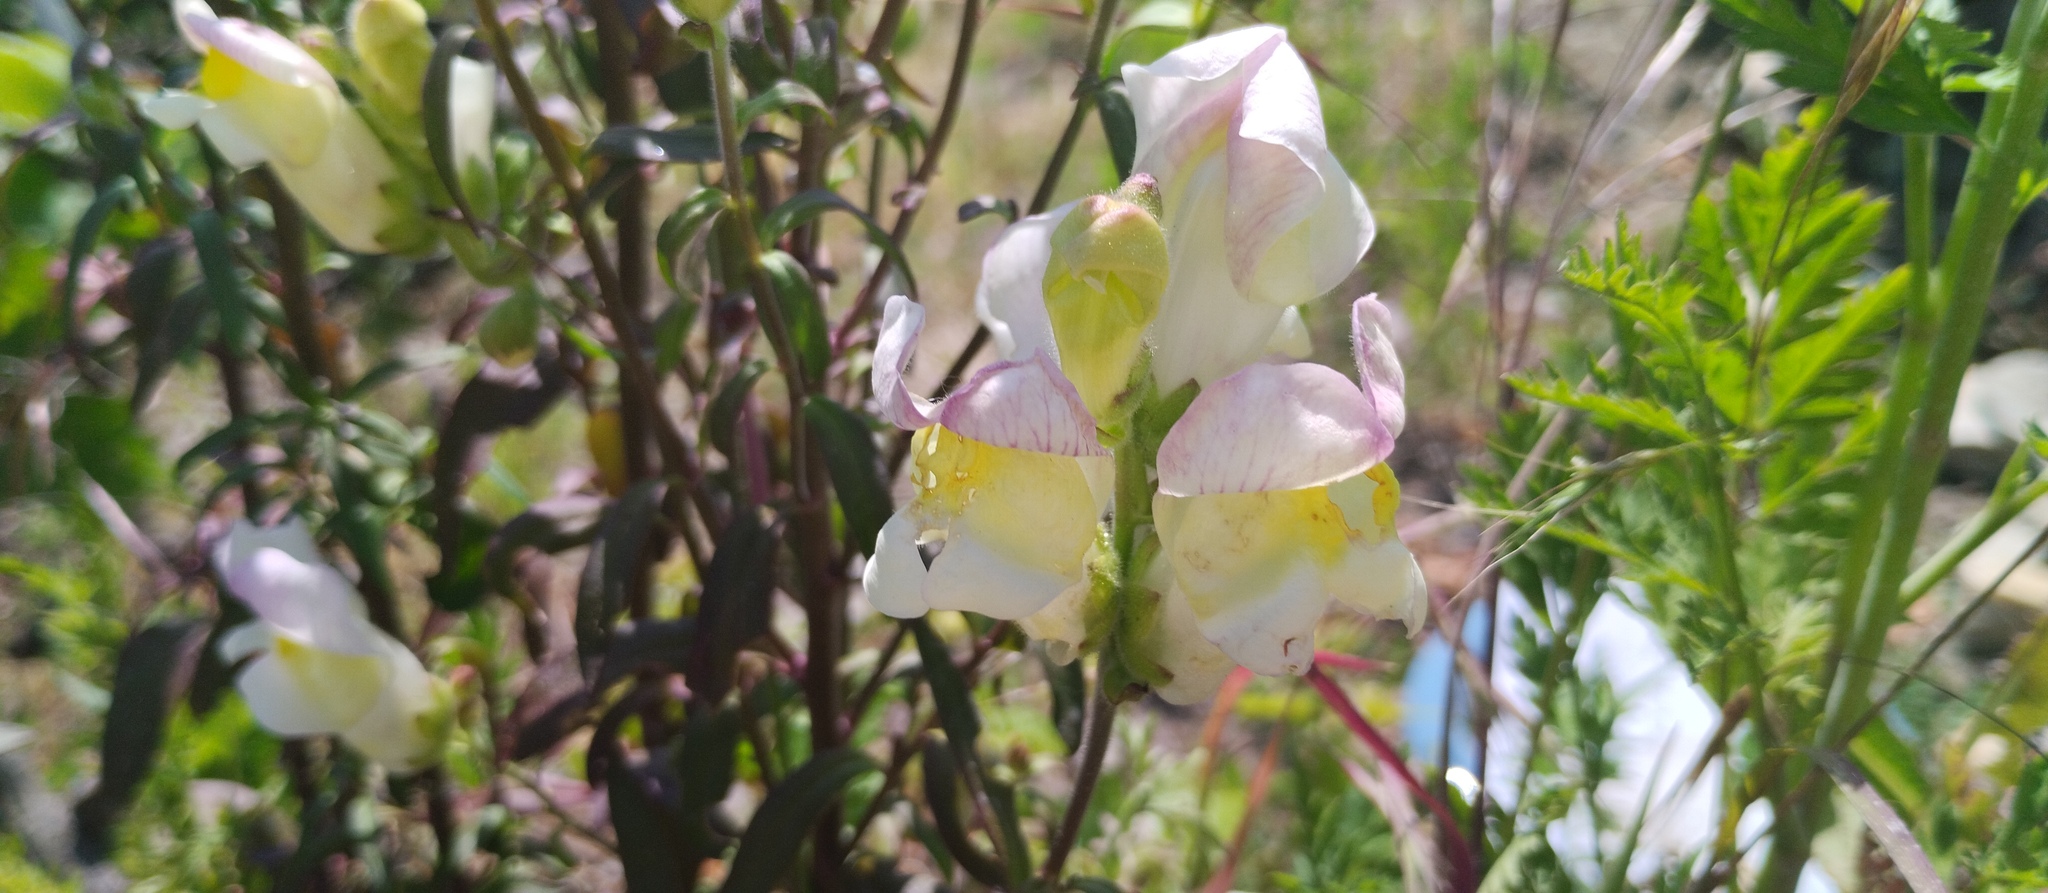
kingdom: Plantae
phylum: Tracheophyta
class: Magnoliopsida
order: Lamiales
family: Plantaginaceae
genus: Antirrhinum
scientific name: Antirrhinum majus
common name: Snapdragon
